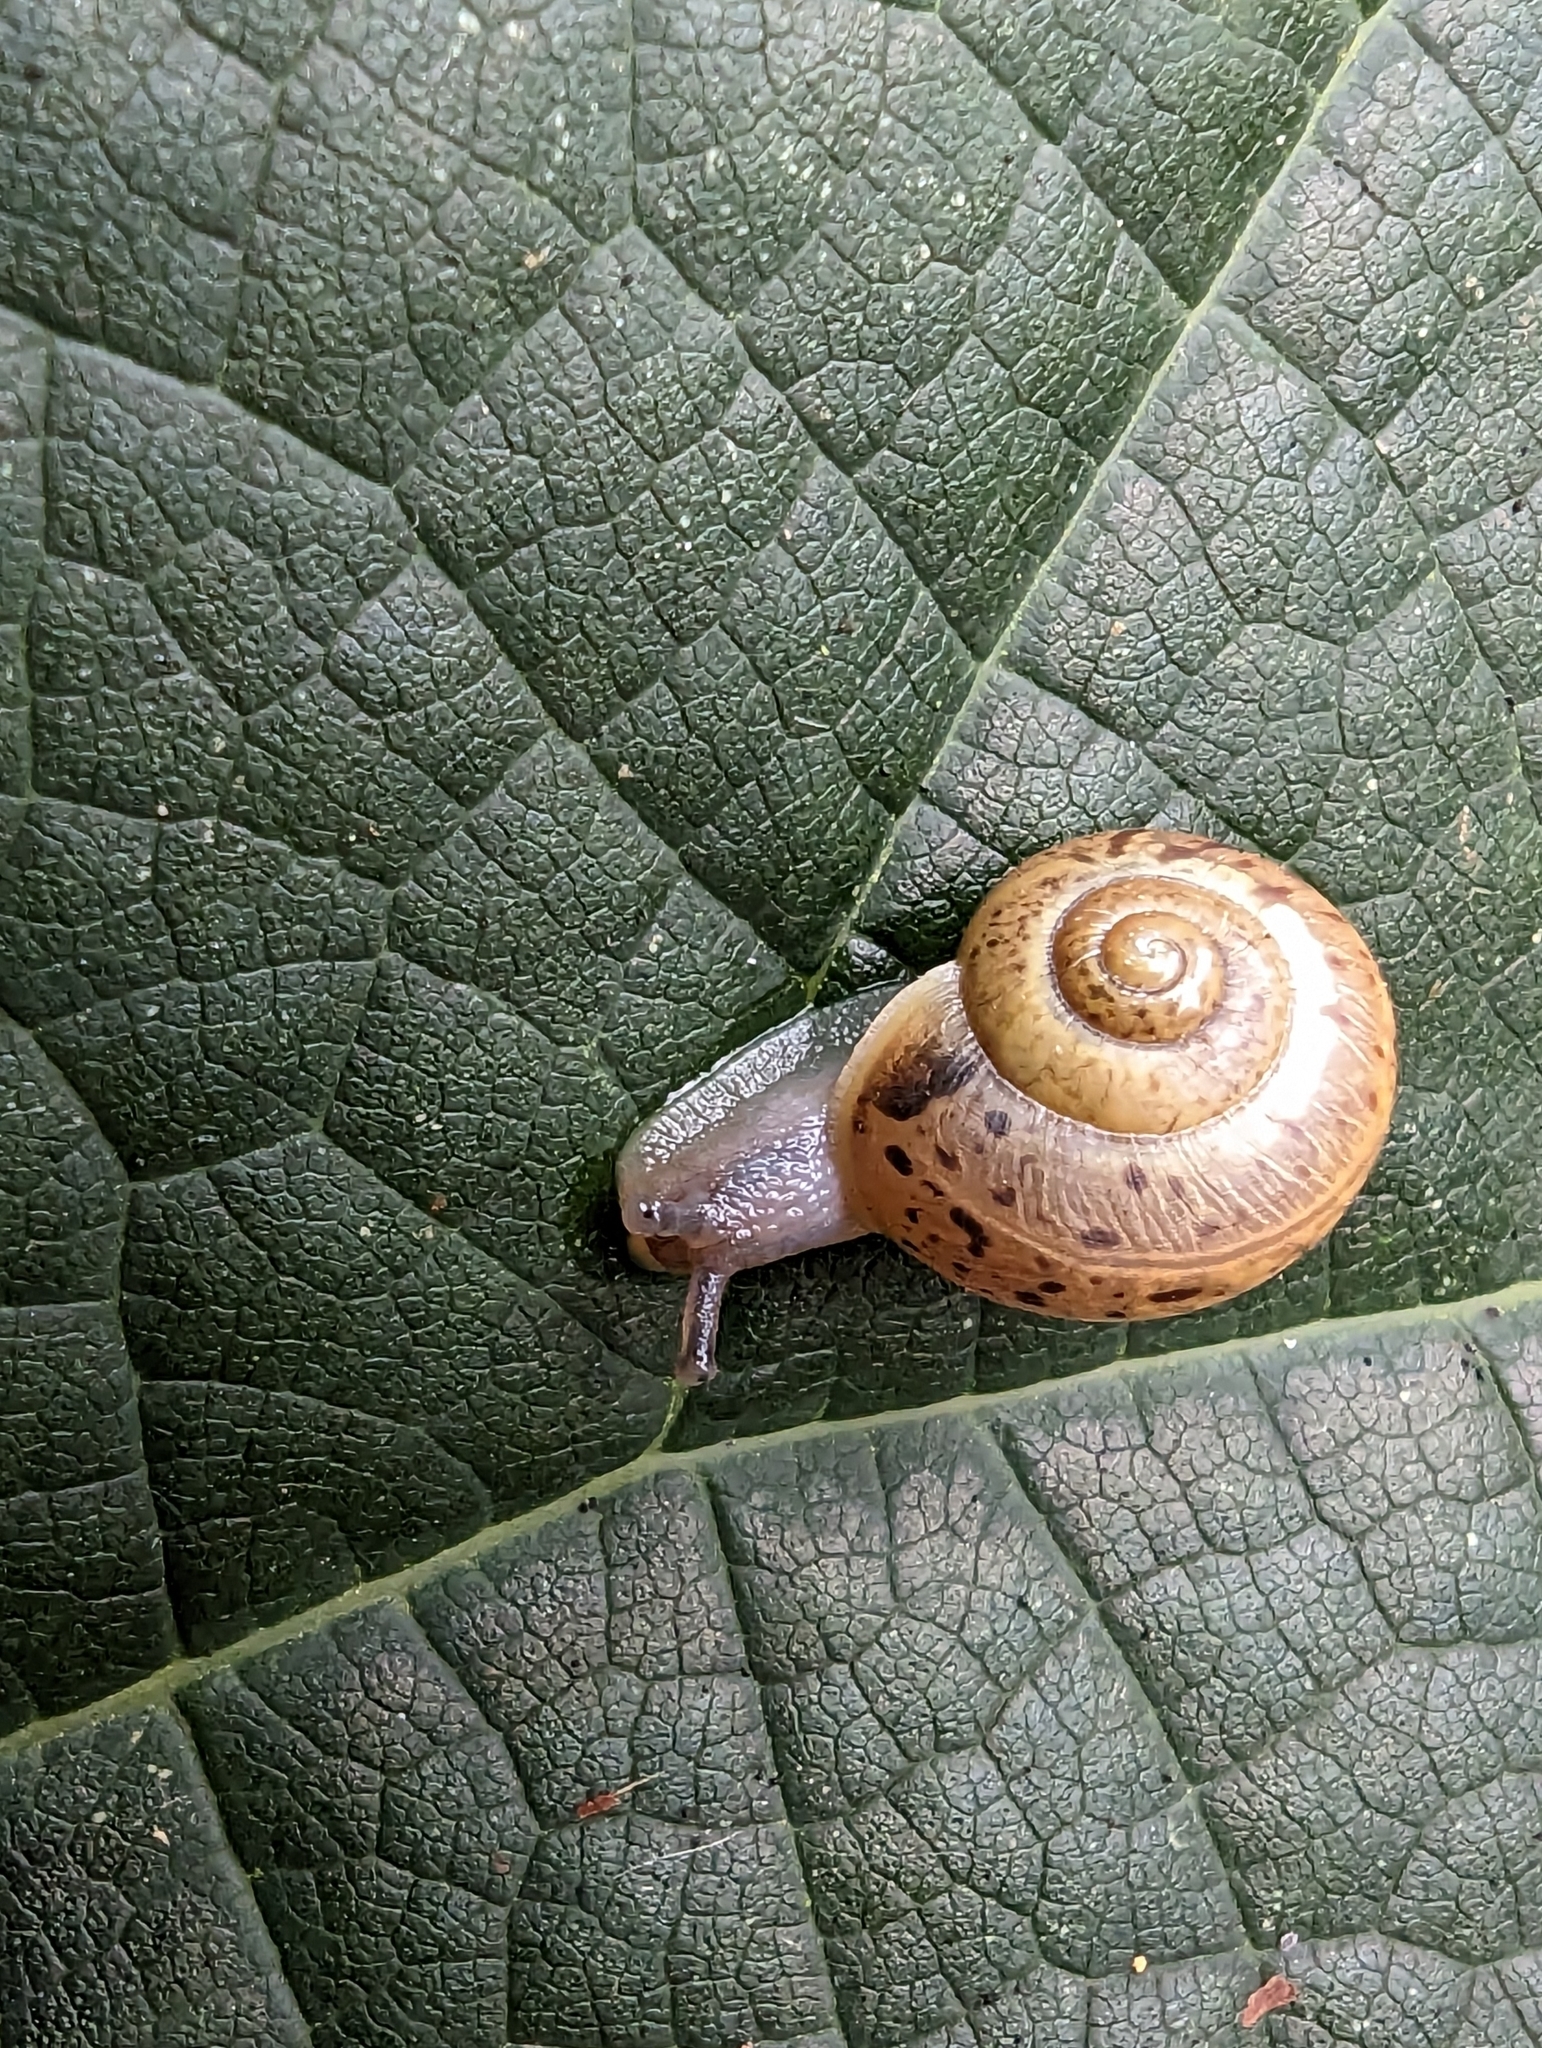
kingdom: Animalia
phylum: Mollusca
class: Gastropoda
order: Stylommatophora
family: Camaenidae
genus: Fruticicola
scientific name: Fruticicola fruticum
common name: Bush snail
